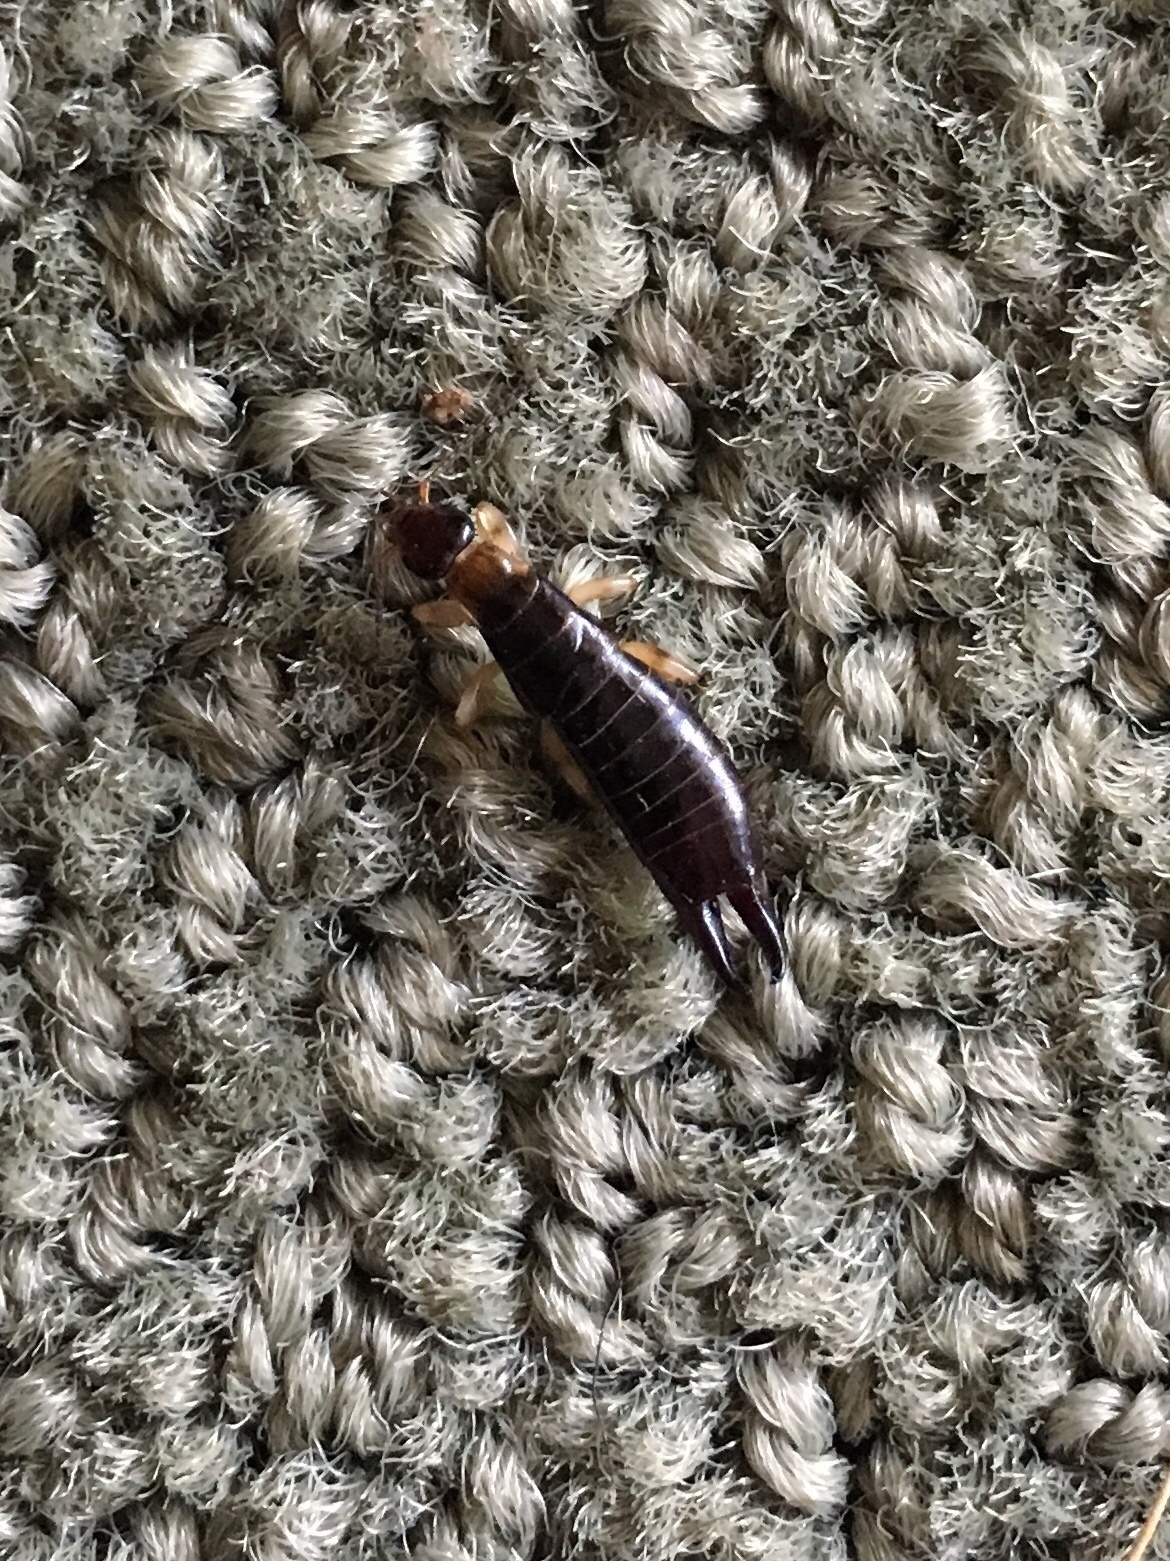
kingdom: Animalia
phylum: Arthropoda
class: Insecta
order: Dermaptera
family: Anisolabididae
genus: Euborellia
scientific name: Euborellia annulipes
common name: Ringlegged earwig
